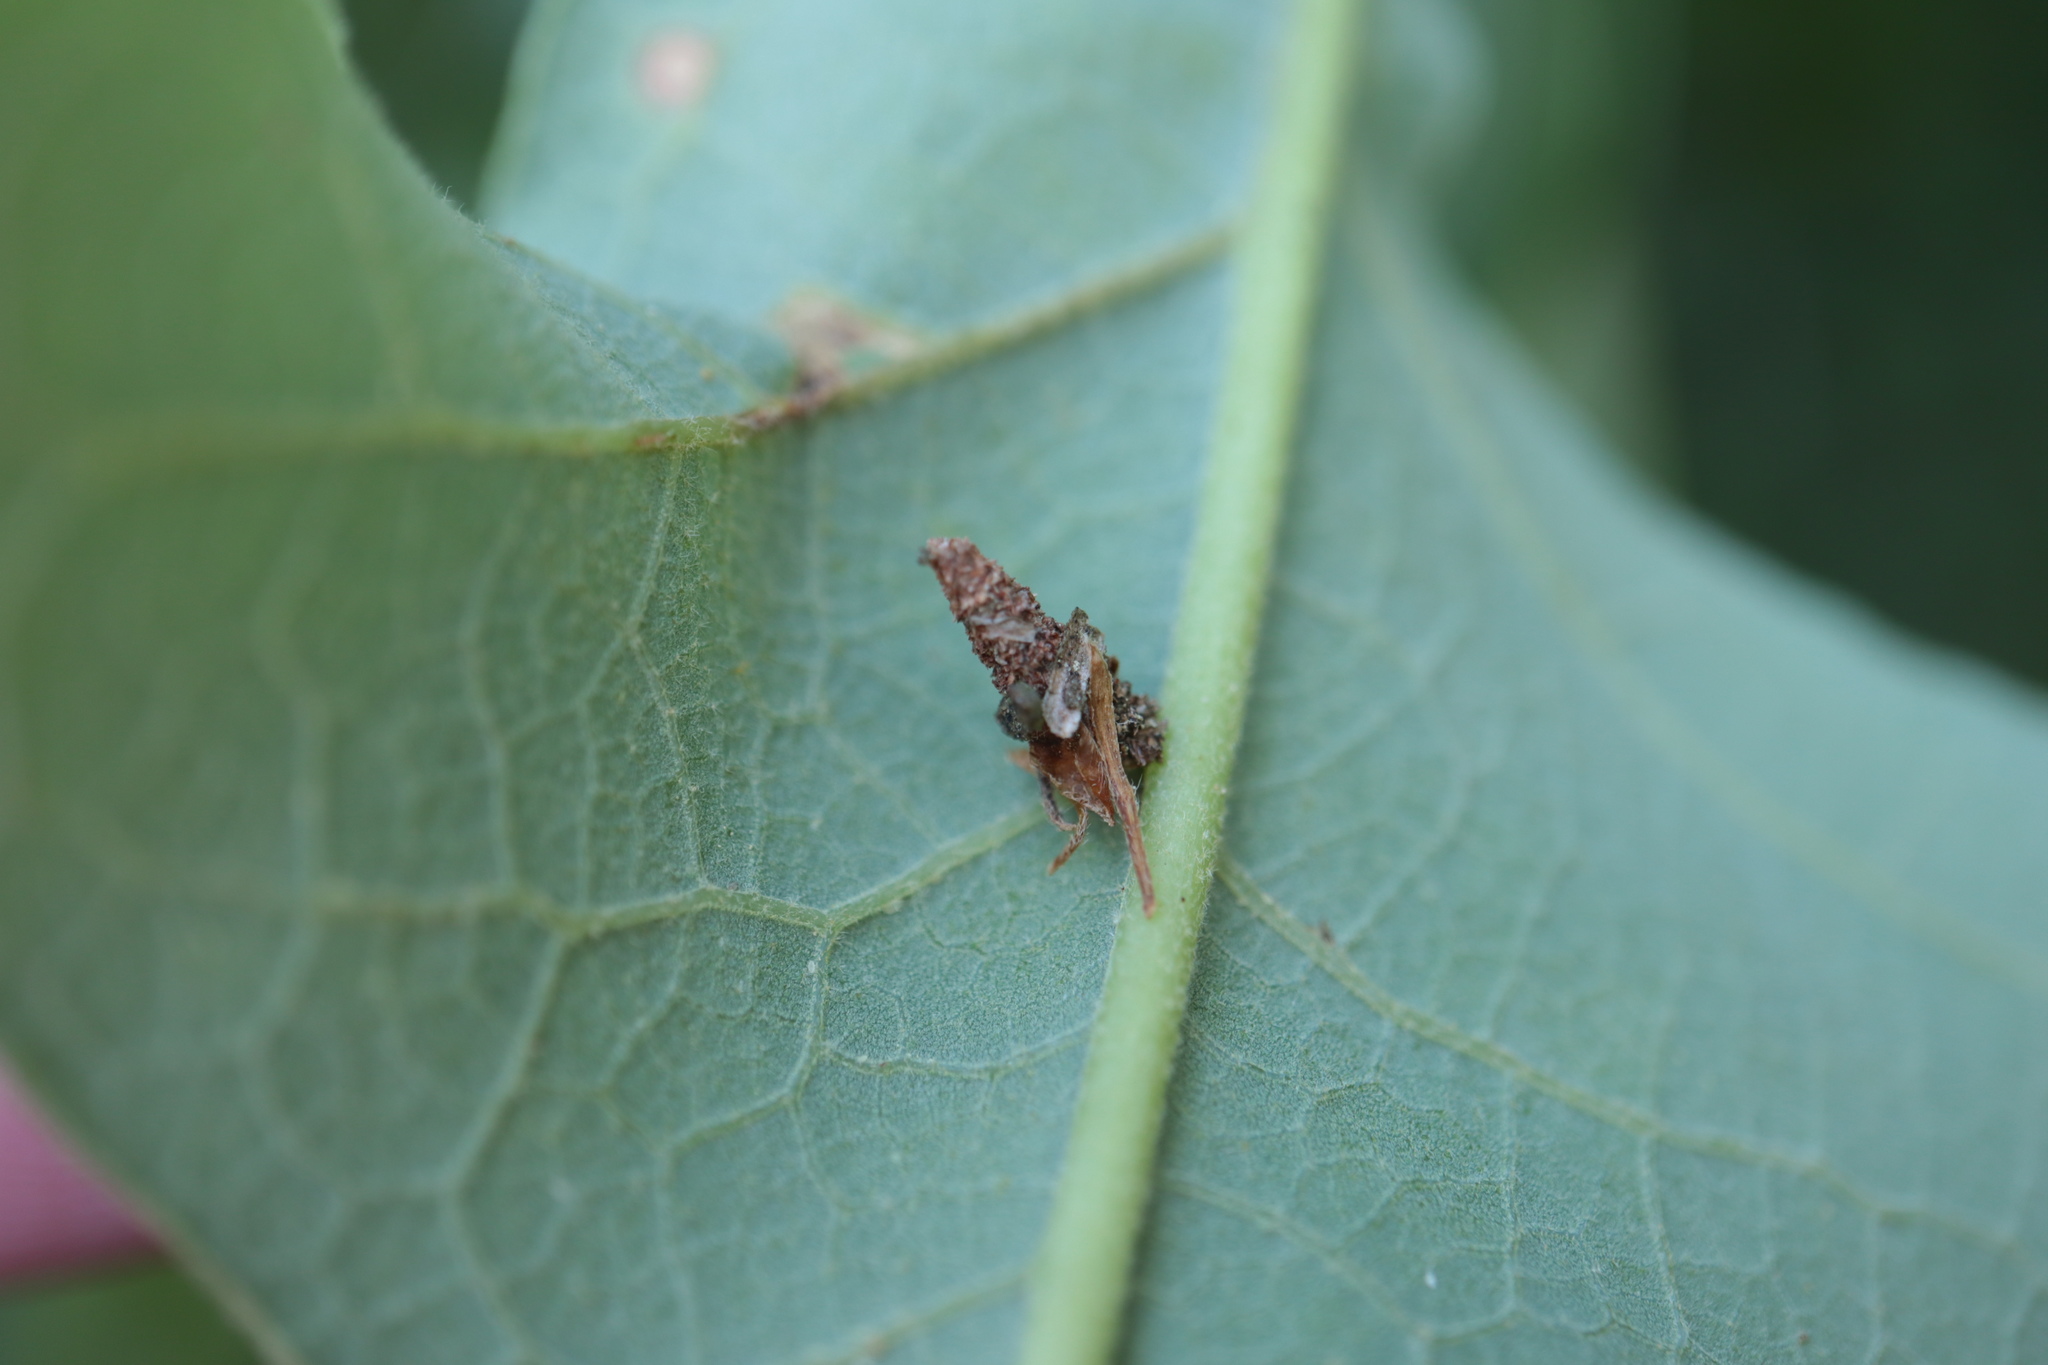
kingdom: Animalia
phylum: Arthropoda
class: Insecta
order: Lepidoptera
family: Psychidae
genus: Psyche
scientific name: Psyche casta
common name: Common sweep
